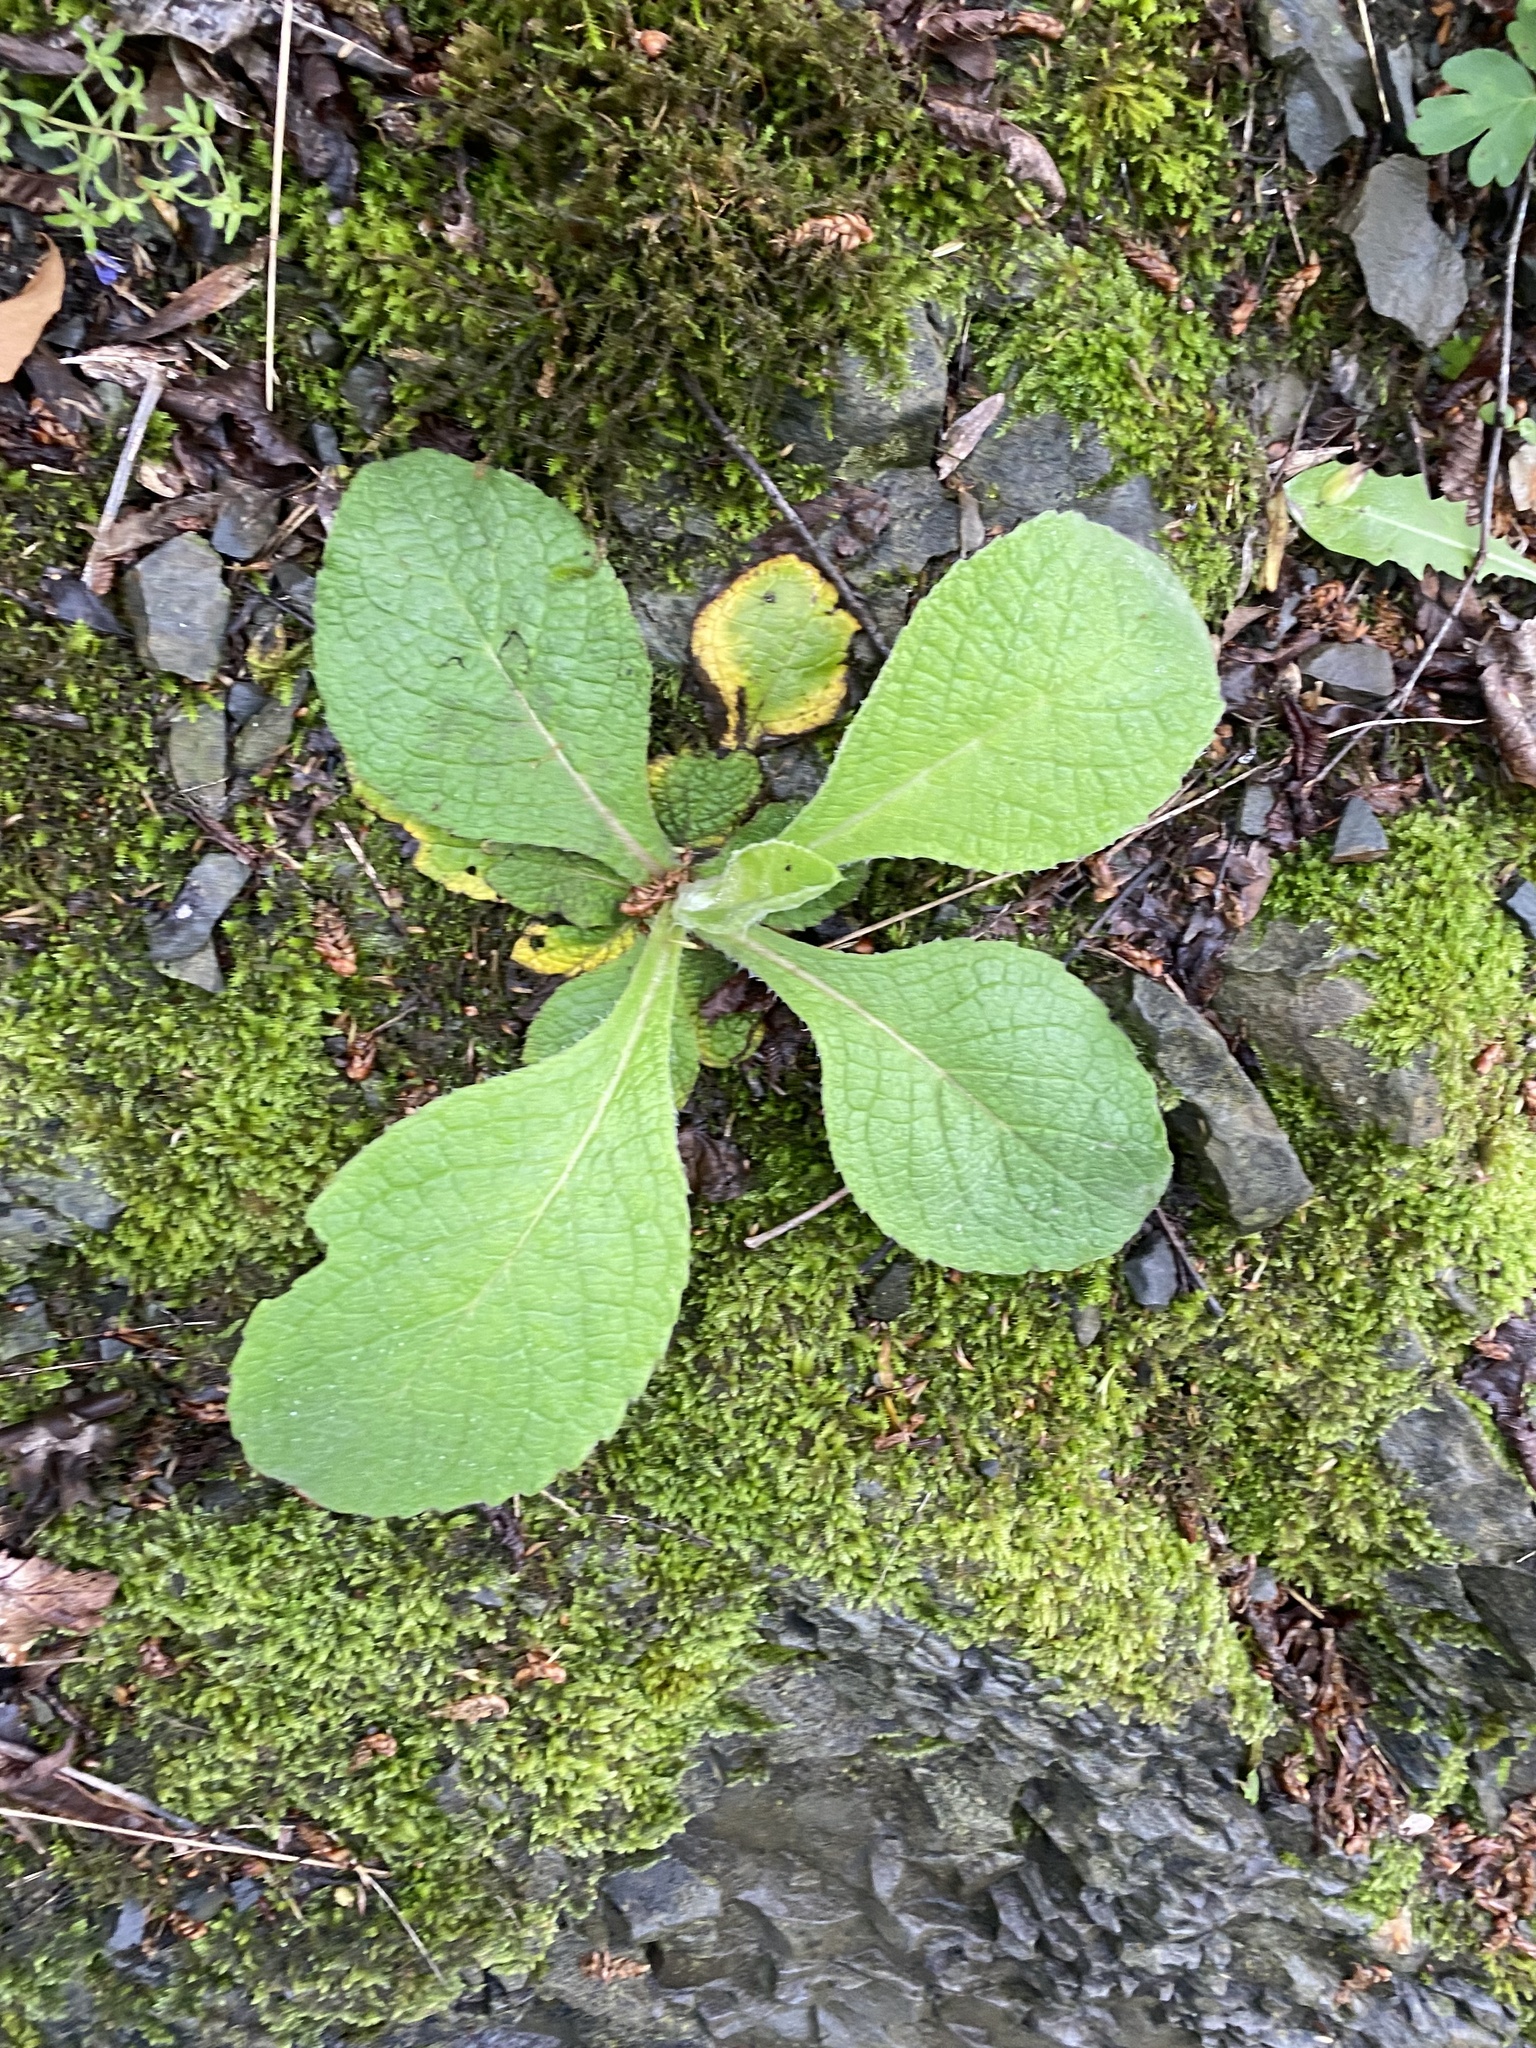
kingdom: Plantae
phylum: Tracheophyta
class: Magnoliopsida
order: Ericales
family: Primulaceae
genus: Primula
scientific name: Primula vulgaris
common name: Primrose
